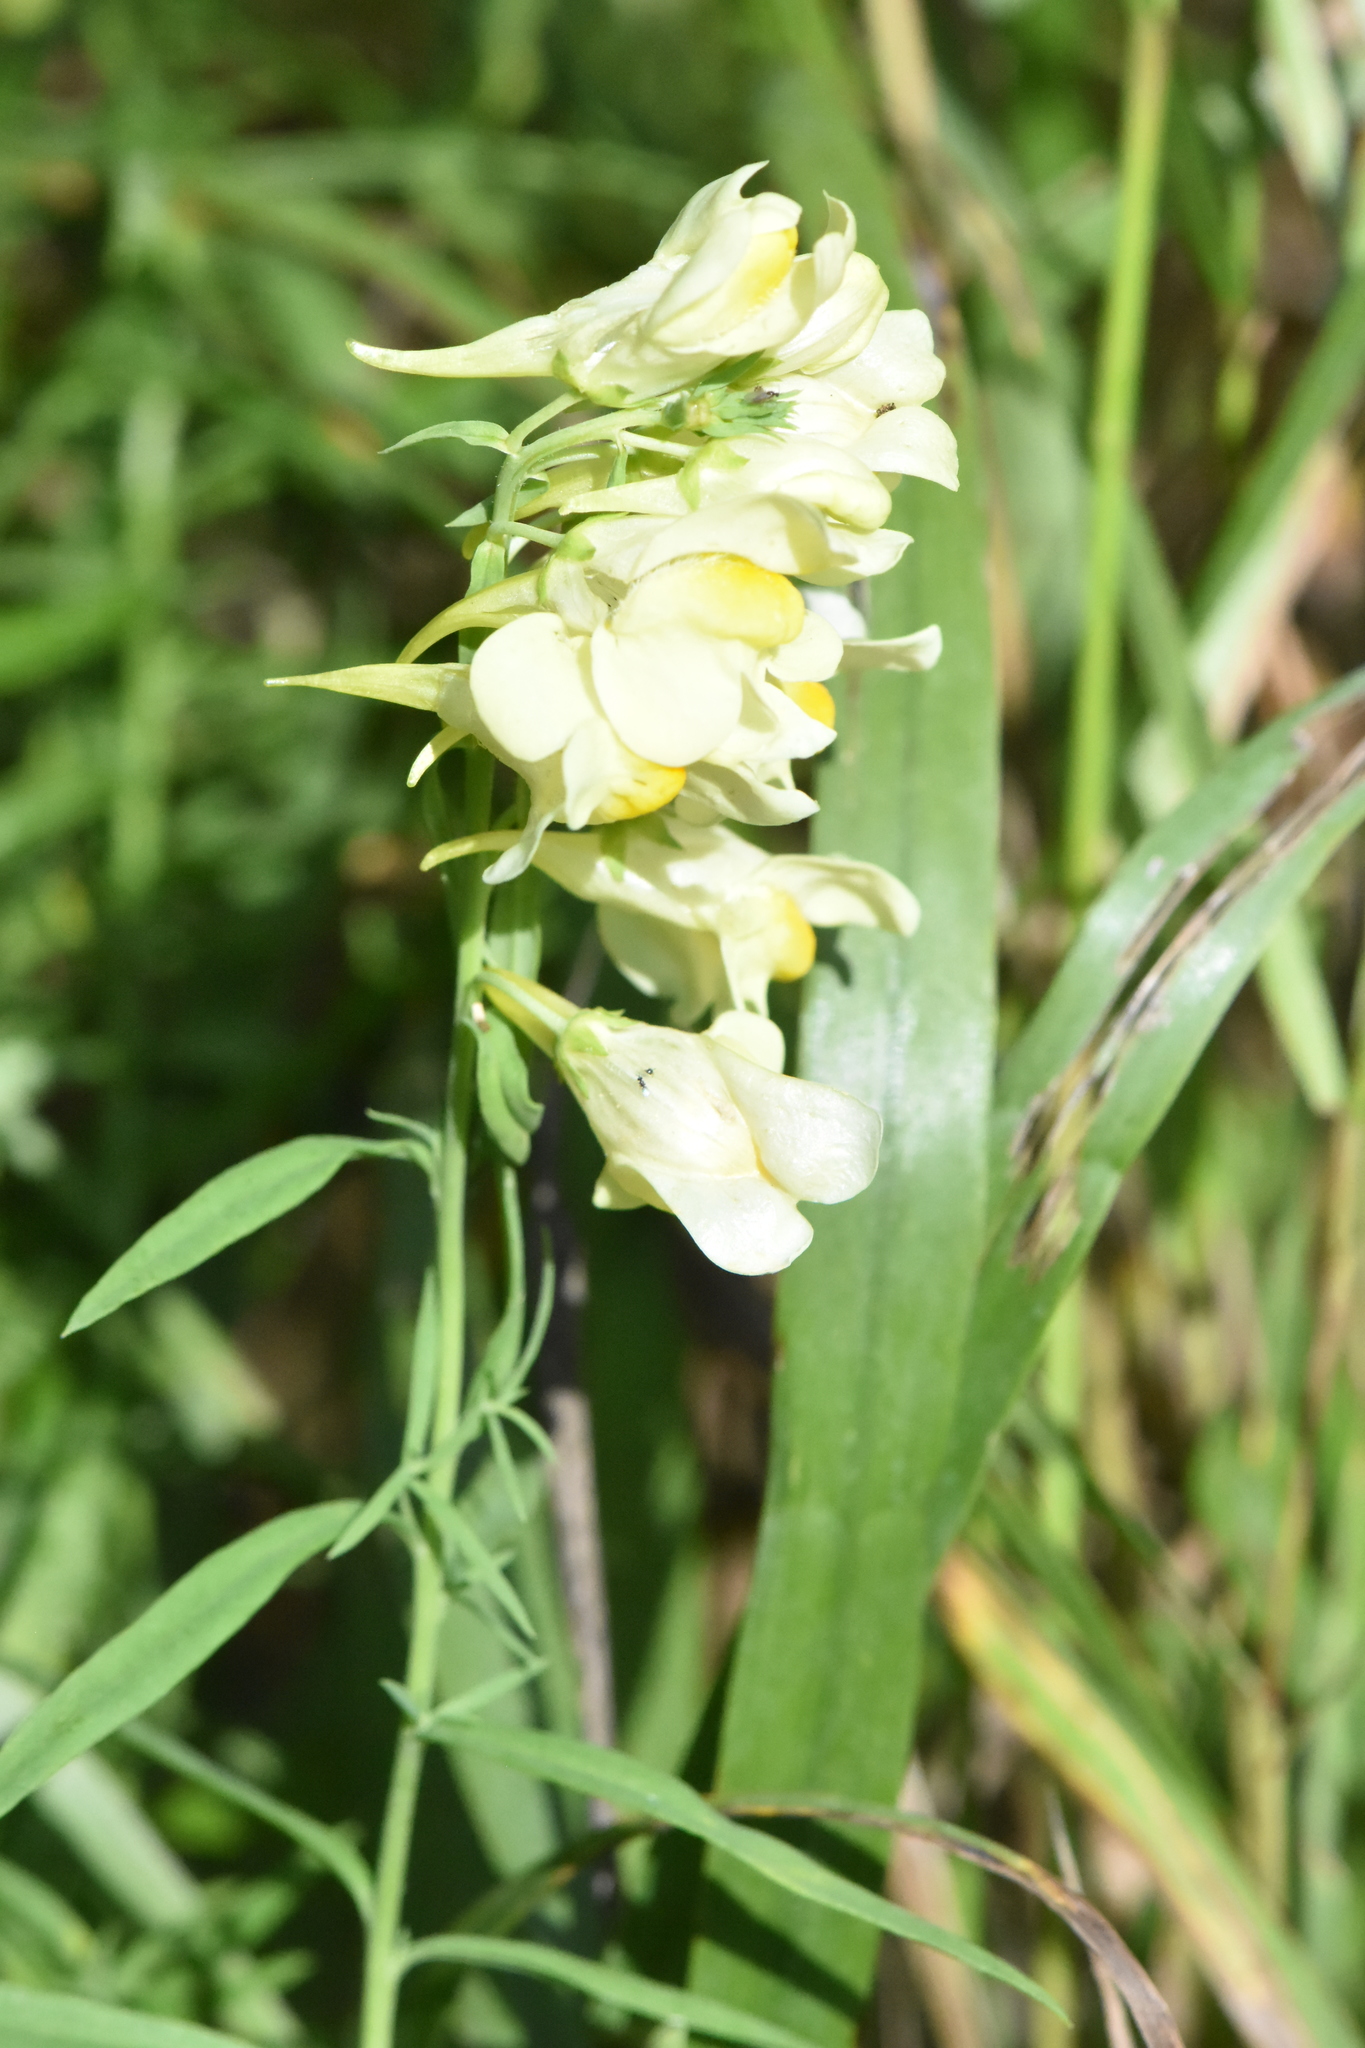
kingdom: Plantae
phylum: Tracheophyta
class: Magnoliopsida
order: Lamiales
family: Plantaginaceae
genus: Linaria
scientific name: Linaria vulgaris
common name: Butter and eggs
